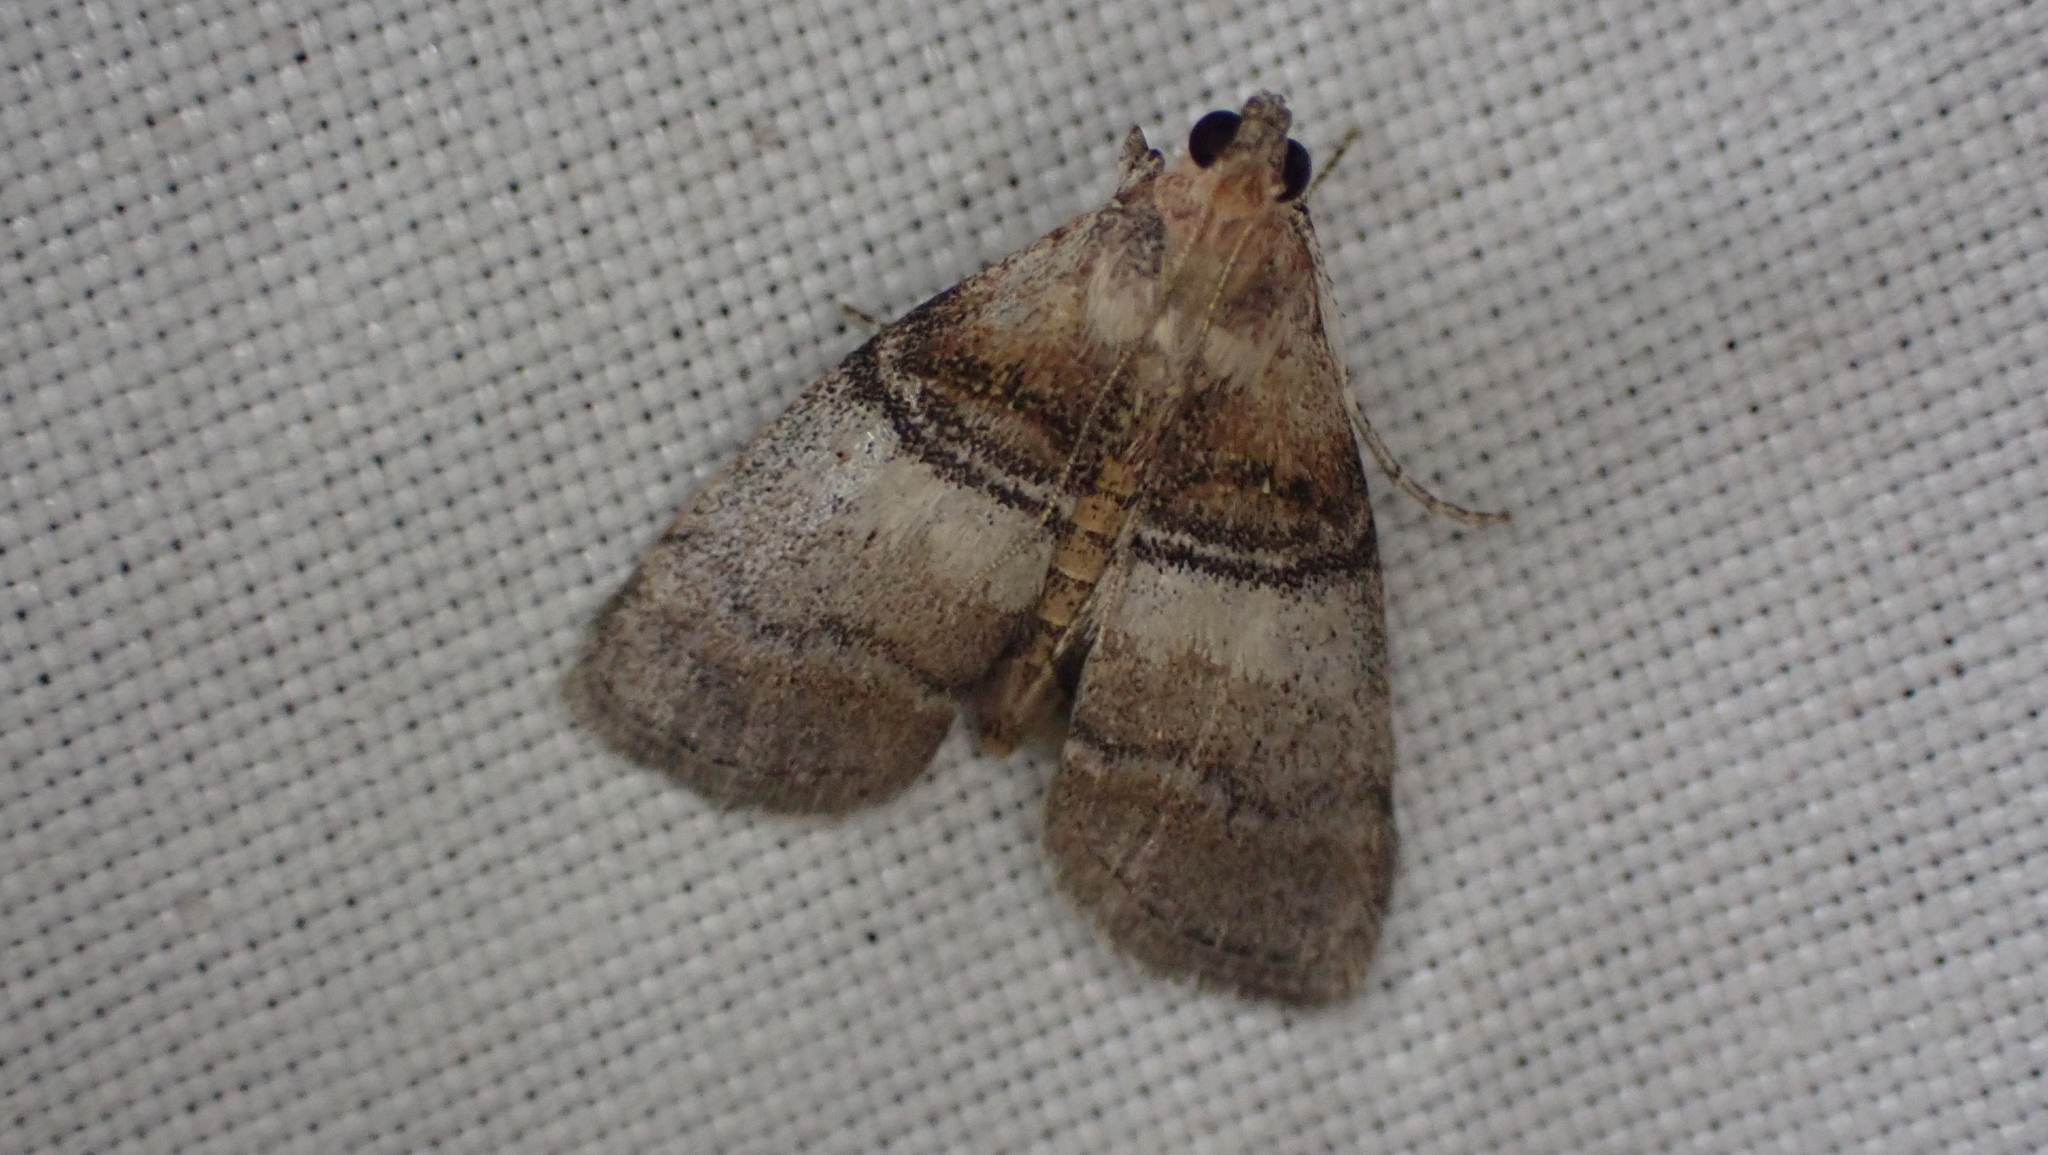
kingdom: Animalia
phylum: Arthropoda
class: Insecta
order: Lepidoptera
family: Pyralidae
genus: Pococera
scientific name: Pococera militella
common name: Sycamore webworm moth
